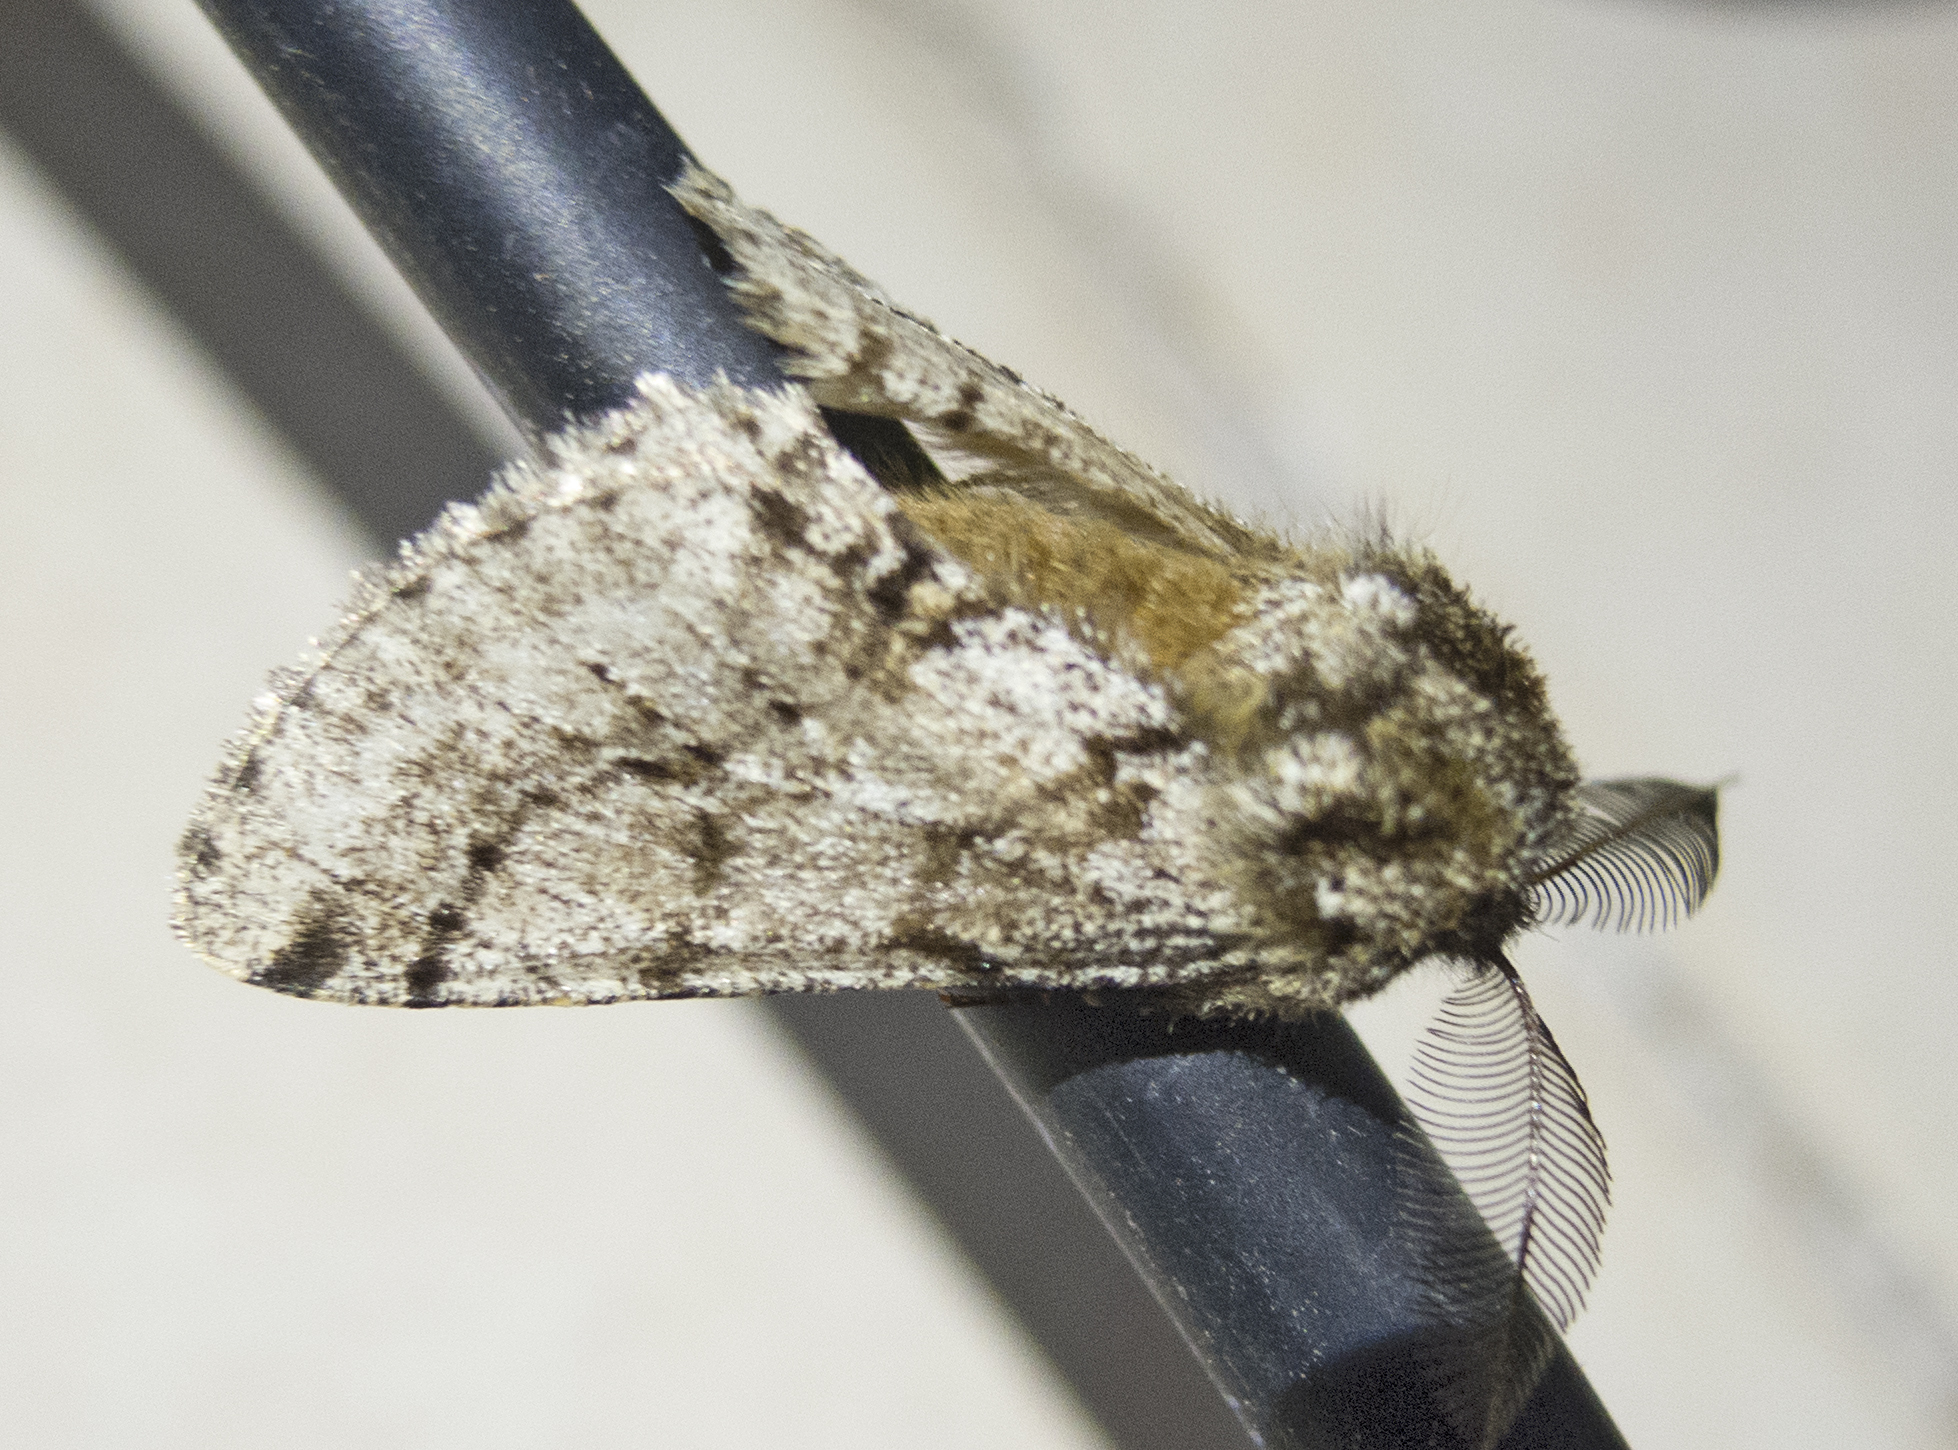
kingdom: Animalia
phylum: Arthropoda
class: Insecta
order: Lepidoptera
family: Geometridae
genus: Lycia
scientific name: Lycia hirtaria
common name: Brindled beauty
